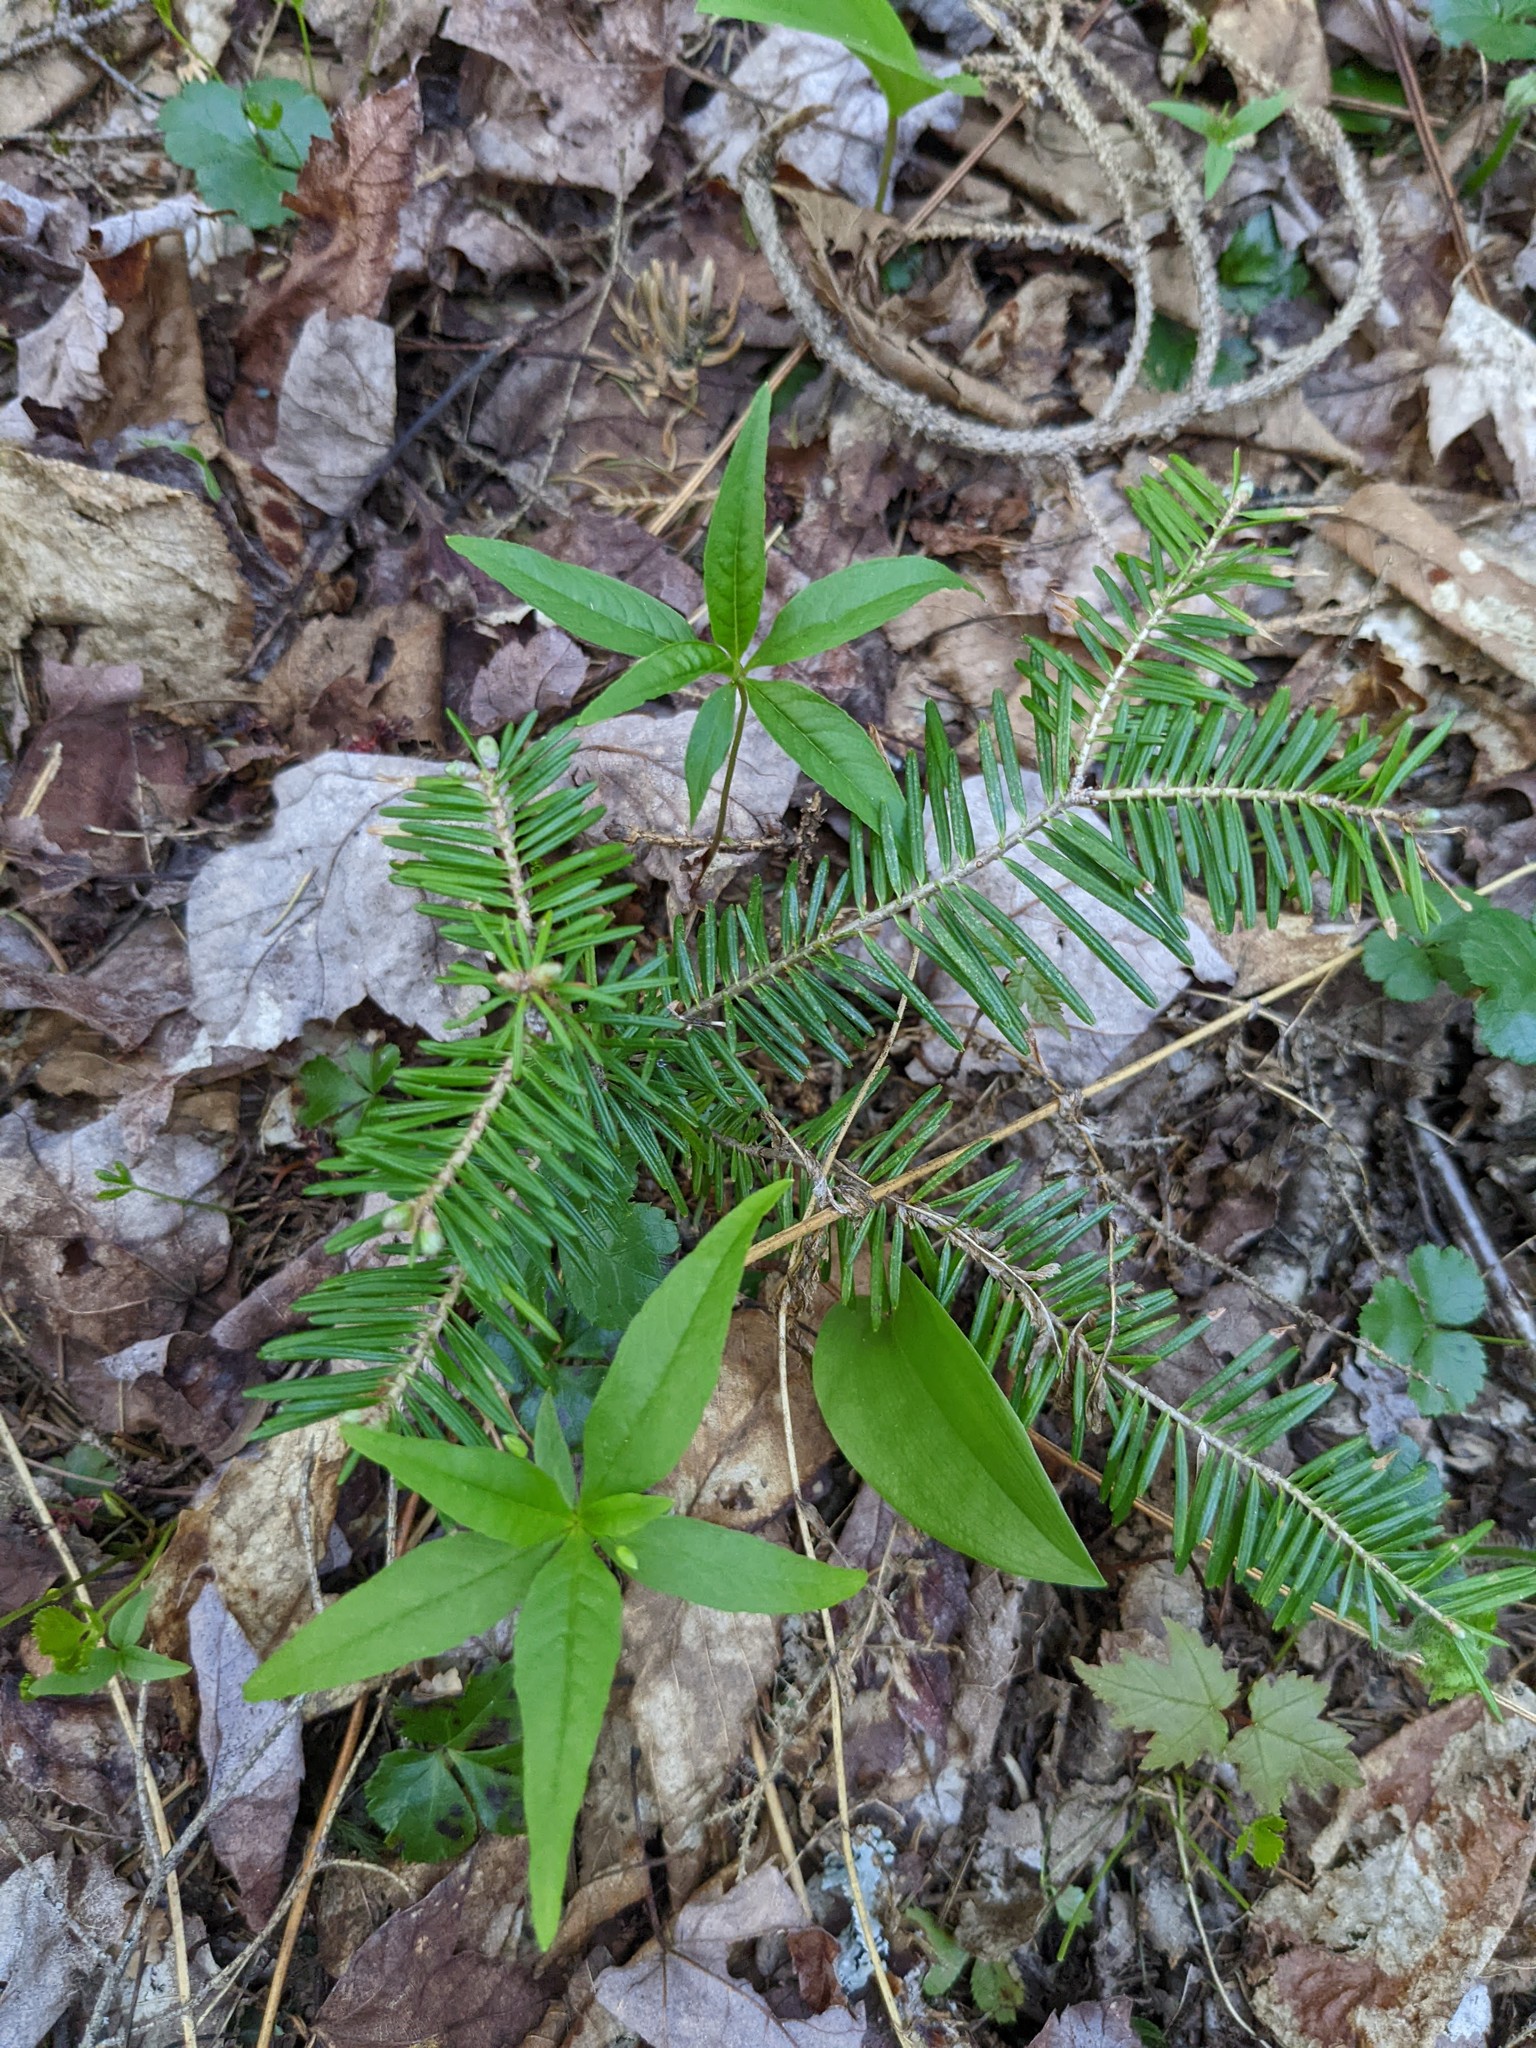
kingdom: Plantae
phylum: Tracheophyta
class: Magnoliopsida
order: Ericales
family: Primulaceae
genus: Lysimachia
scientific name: Lysimachia borealis
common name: American starflower
